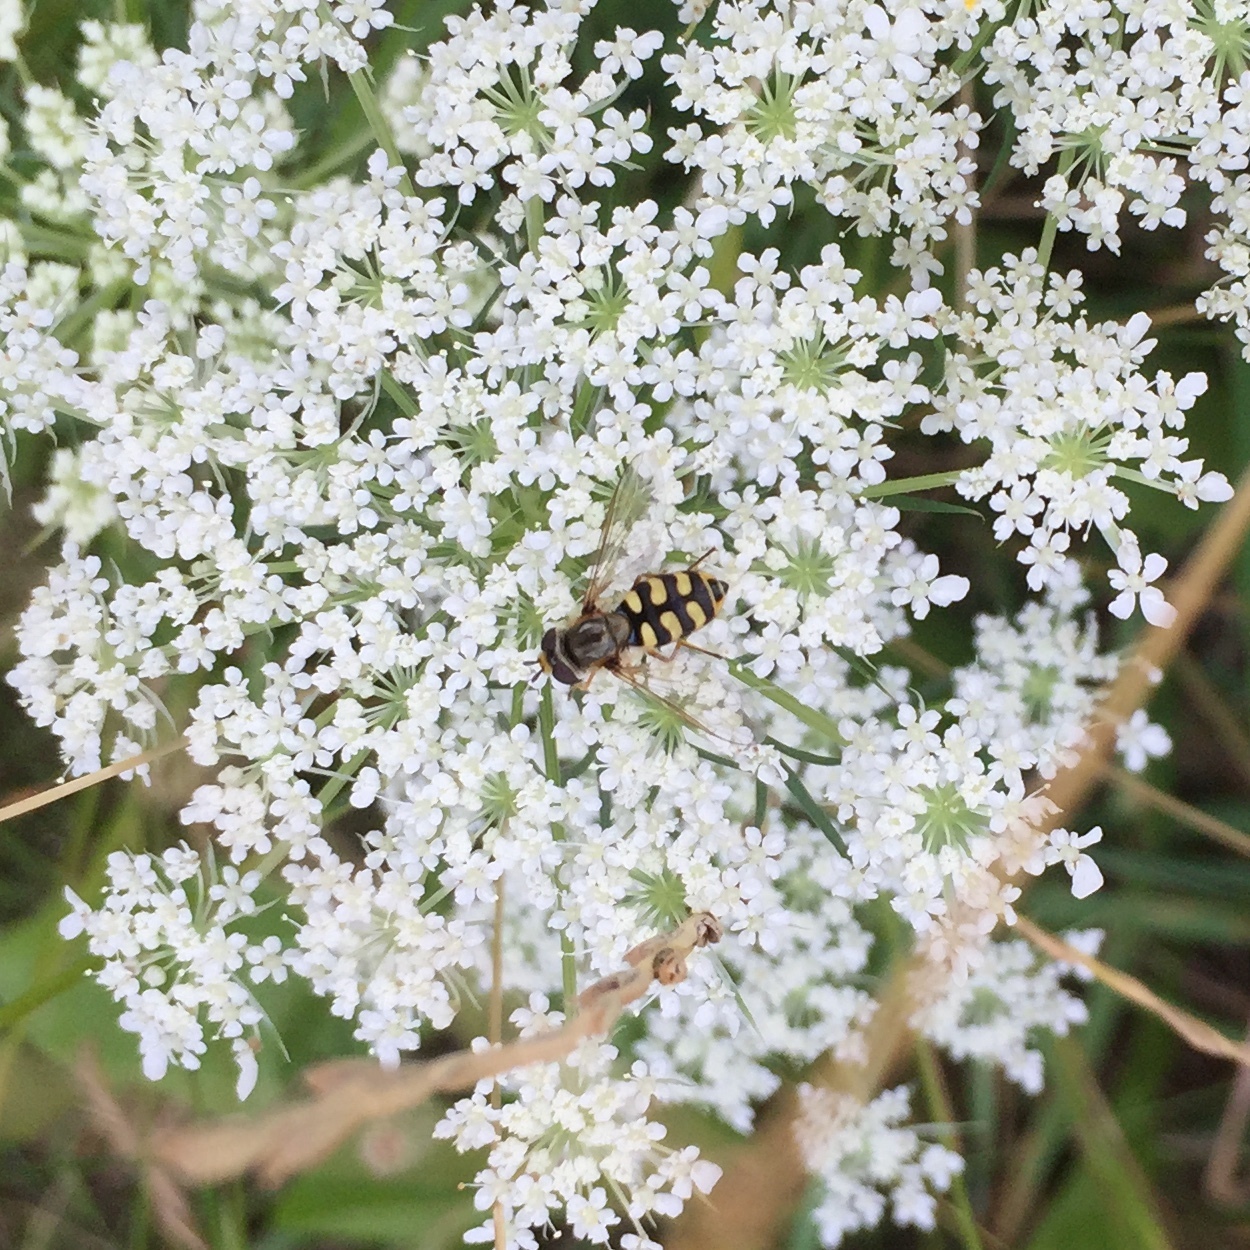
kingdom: Animalia
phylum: Arthropoda
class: Insecta
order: Diptera
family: Syrphidae
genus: Eupeodes
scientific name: Eupeodes corollae
